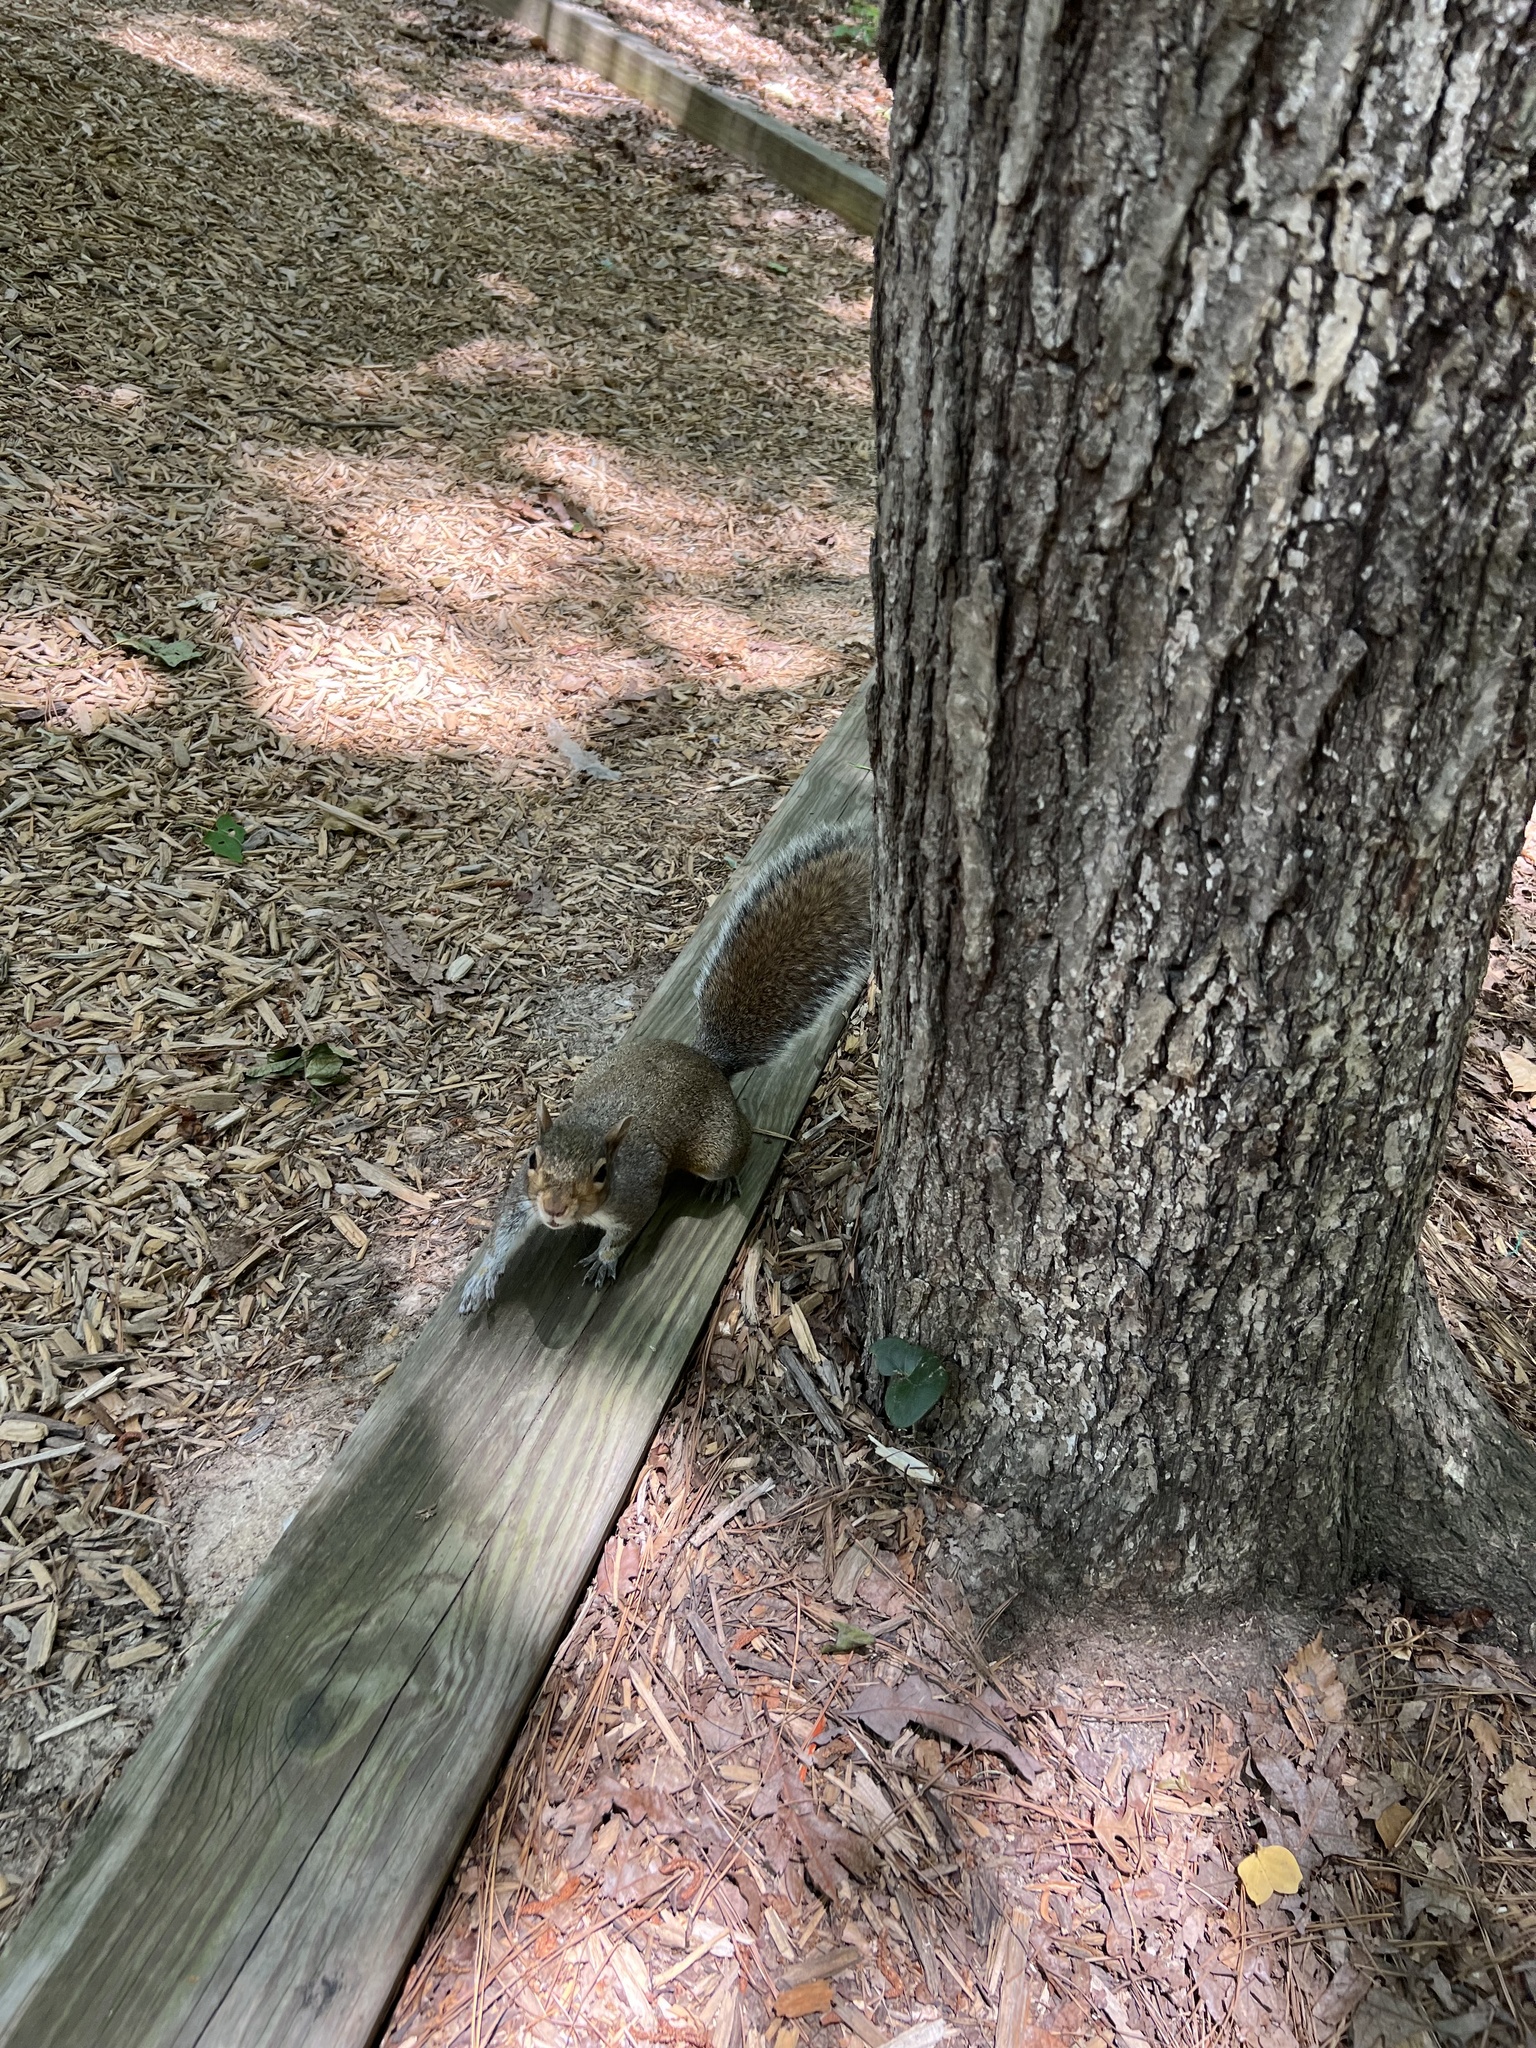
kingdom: Animalia
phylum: Chordata
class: Mammalia
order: Rodentia
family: Sciuridae
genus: Sciurus
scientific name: Sciurus carolinensis
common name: Eastern gray squirrel
